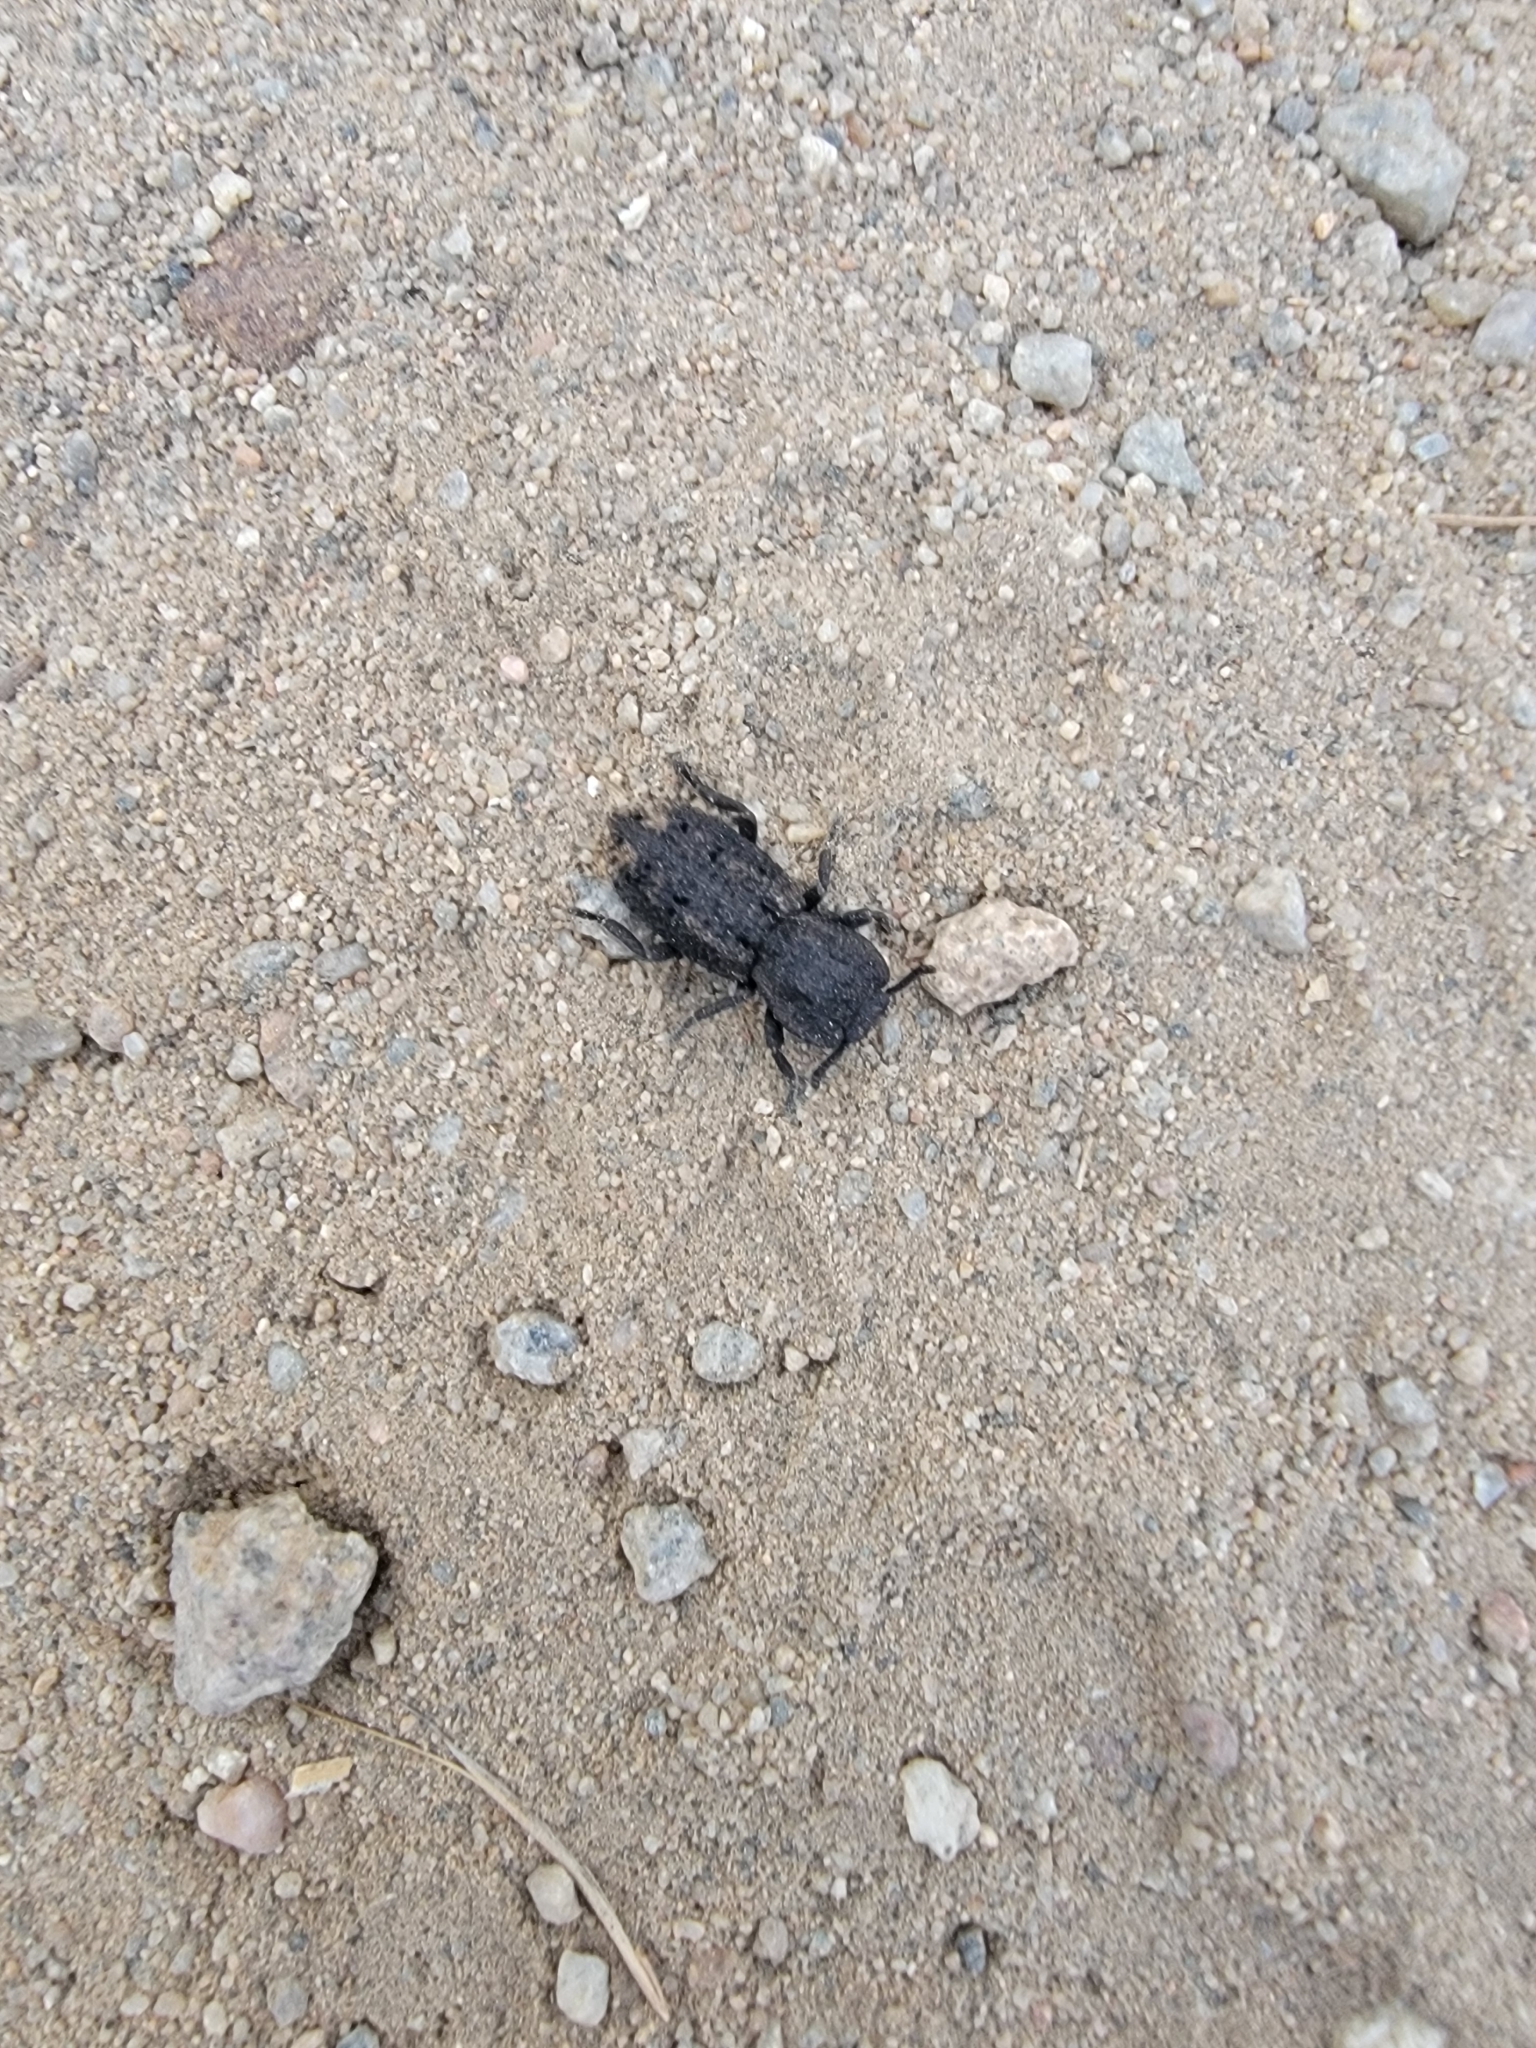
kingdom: Animalia
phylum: Arthropoda
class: Insecta
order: Coleoptera
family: Zopheridae
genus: Phloeodes
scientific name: Phloeodes diabolicus
